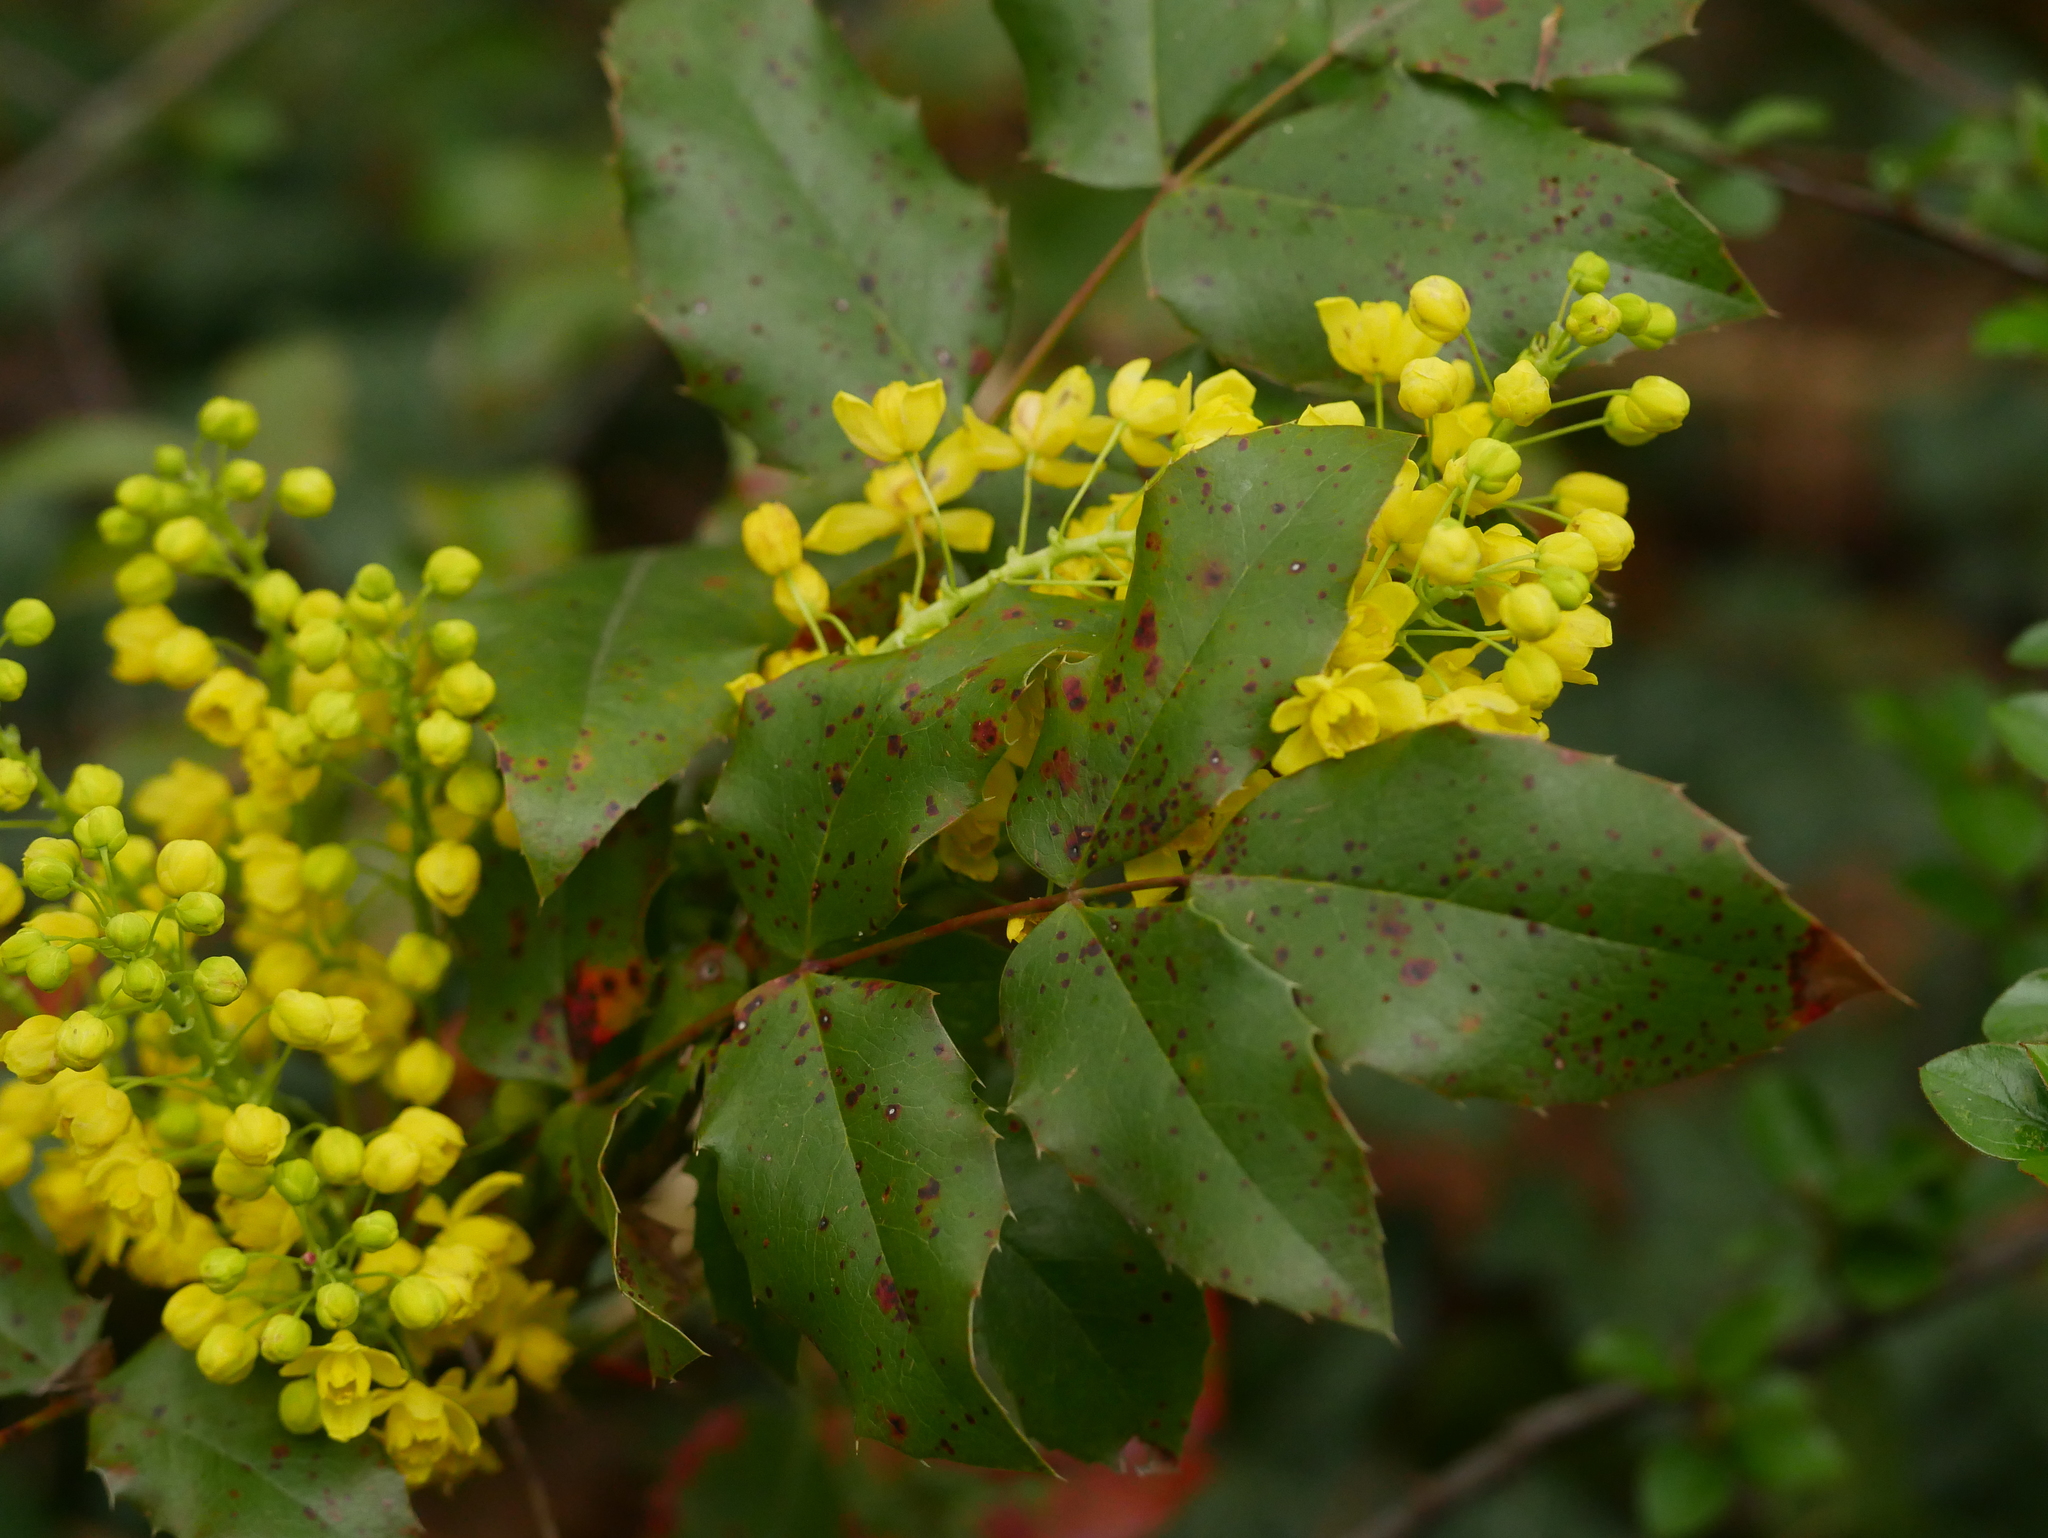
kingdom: Plantae
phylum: Tracheophyta
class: Magnoliopsida
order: Ranunculales
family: Berberidaceae
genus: Mahonia
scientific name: Mahonia aquifolium
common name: Oregon-grape
